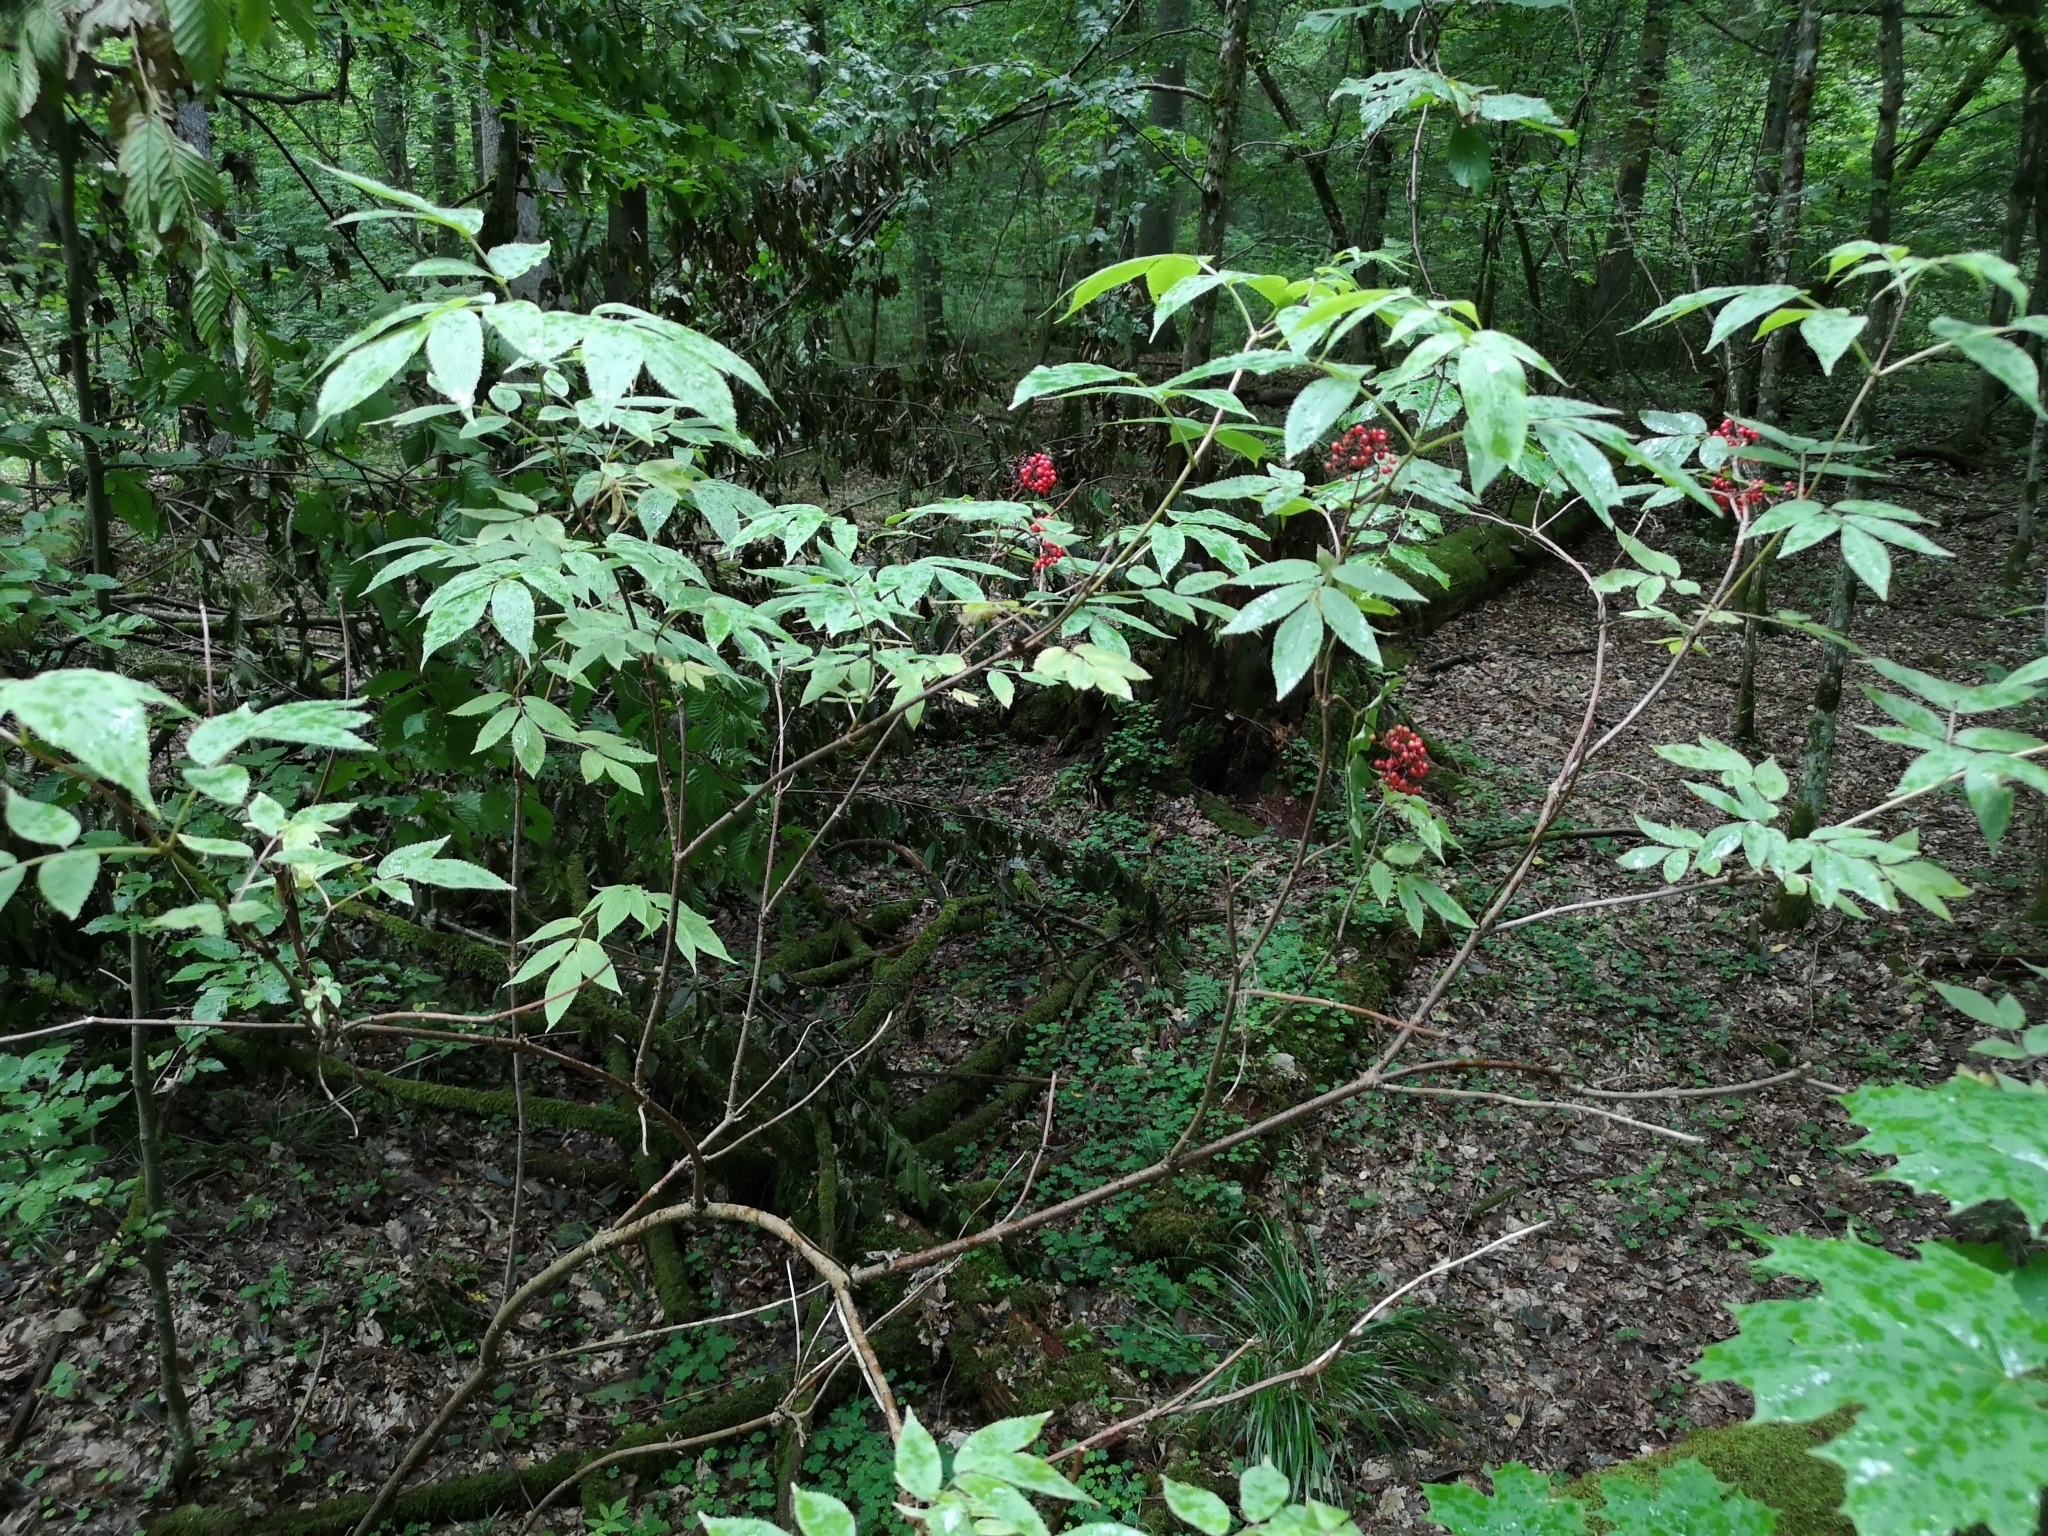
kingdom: Plantae
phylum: Tracheophyta
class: Magnoliopsida
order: Dipsacales
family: Viburnaceae
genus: Sambucus
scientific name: Sambucus racemosa
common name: Red-berried elder
